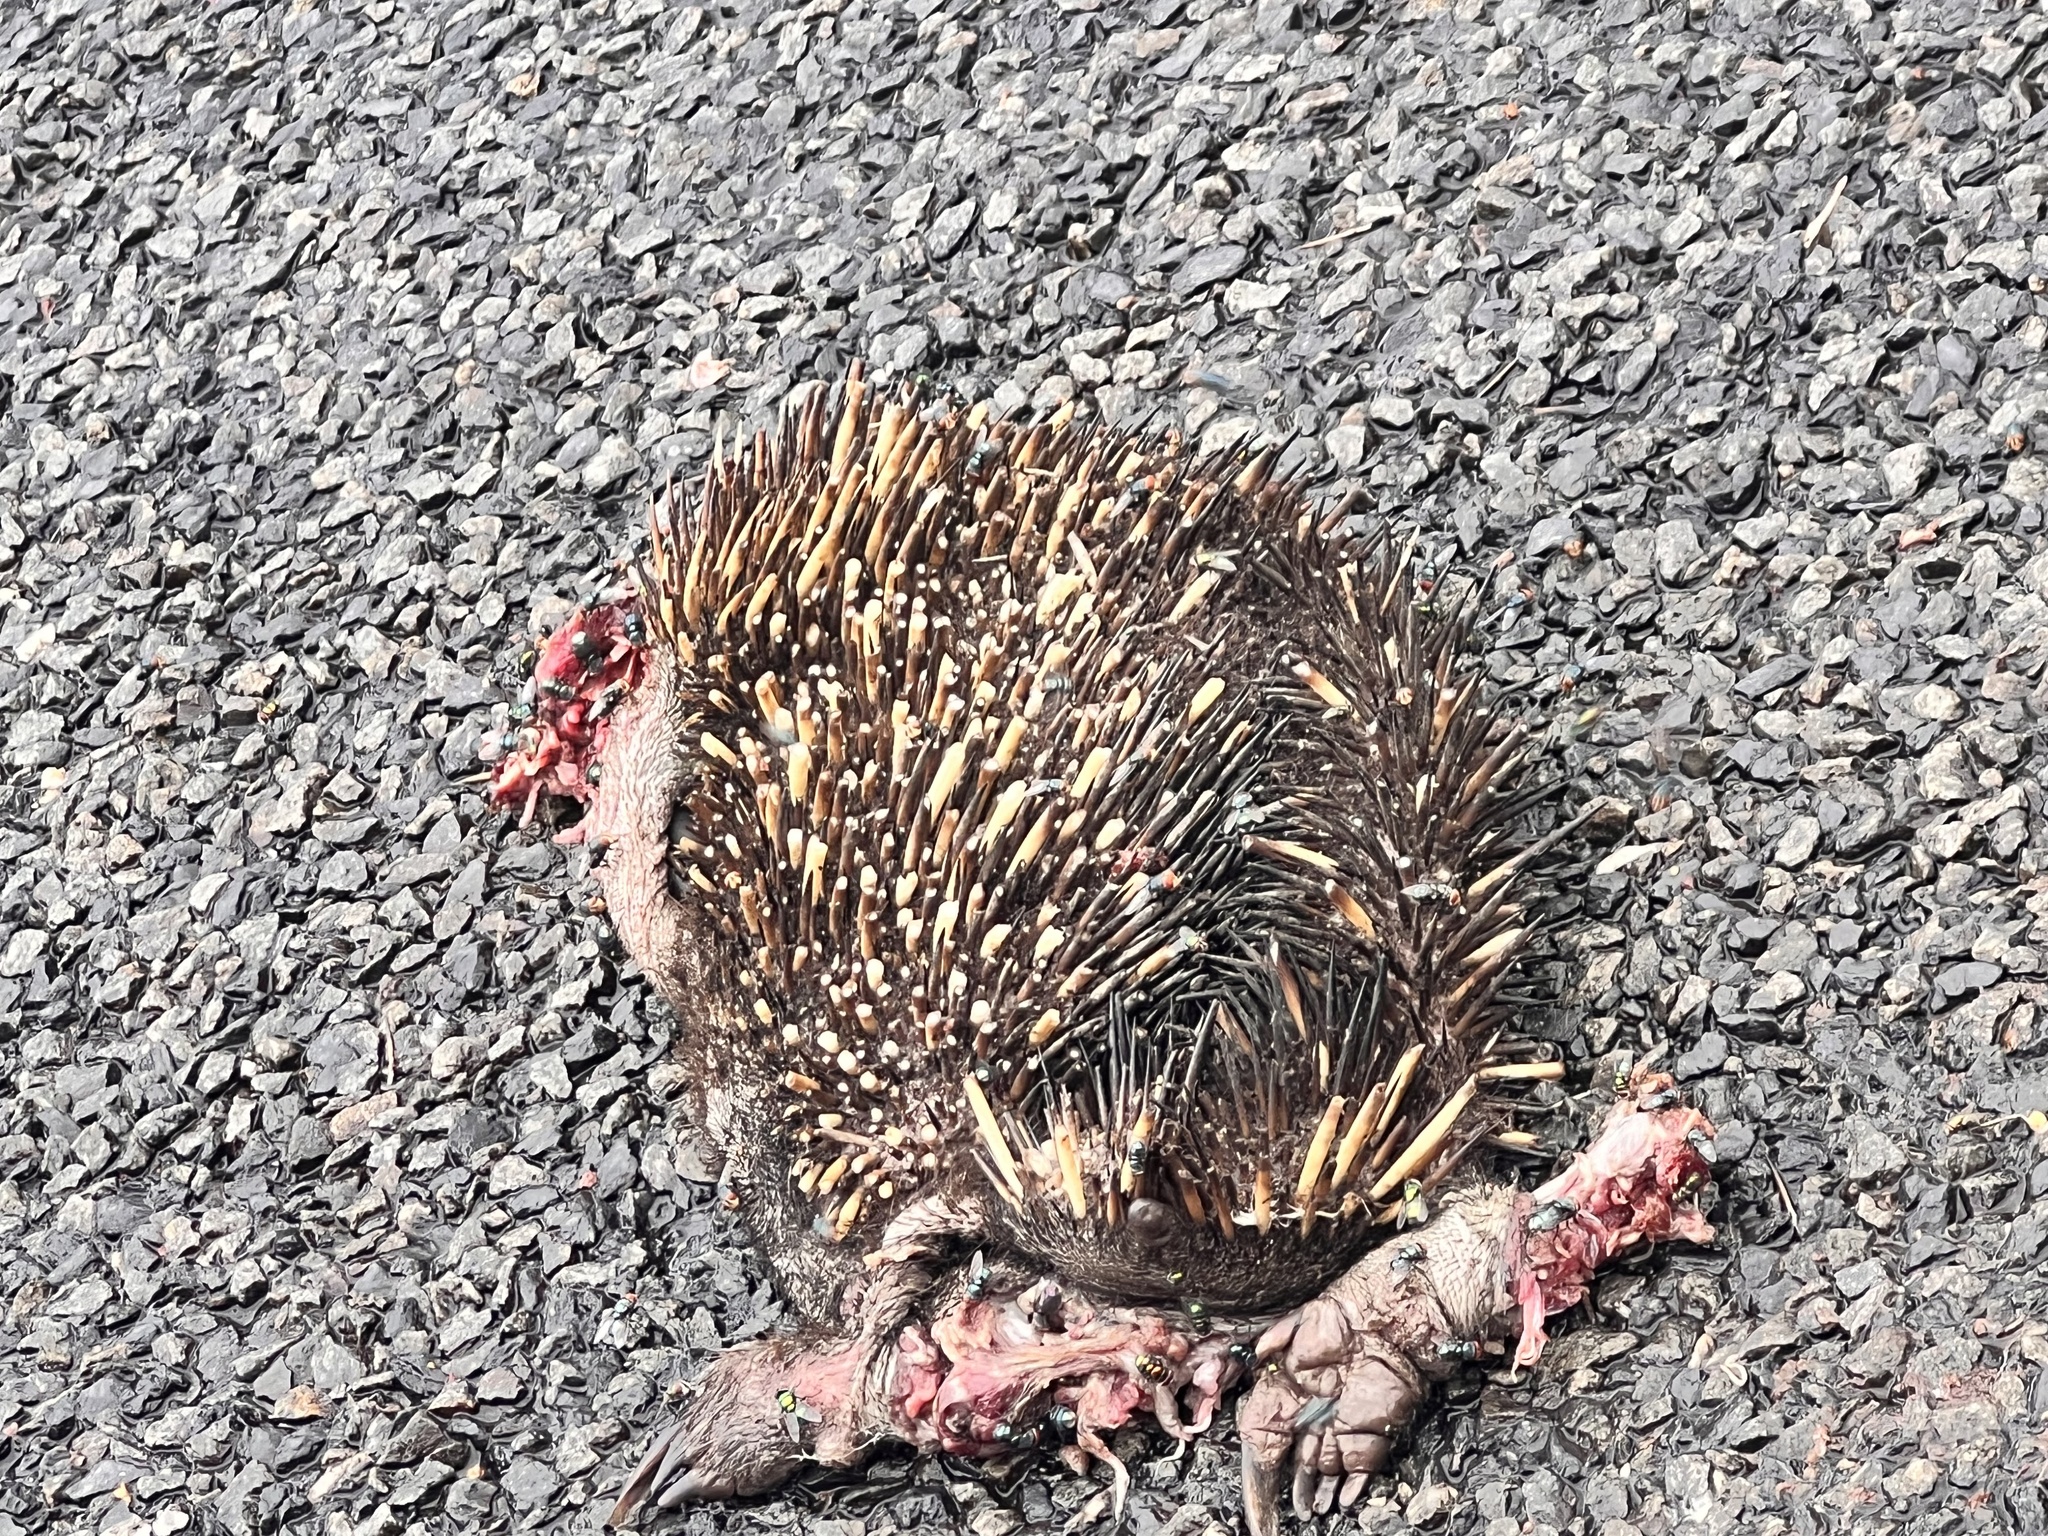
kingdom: Animalia
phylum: Chordata
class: Mammalia
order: Monotremata
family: Tachyglossidae
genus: Tachyglossus
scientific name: Tachyglossus aculeatus
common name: Short-beaked echidna
